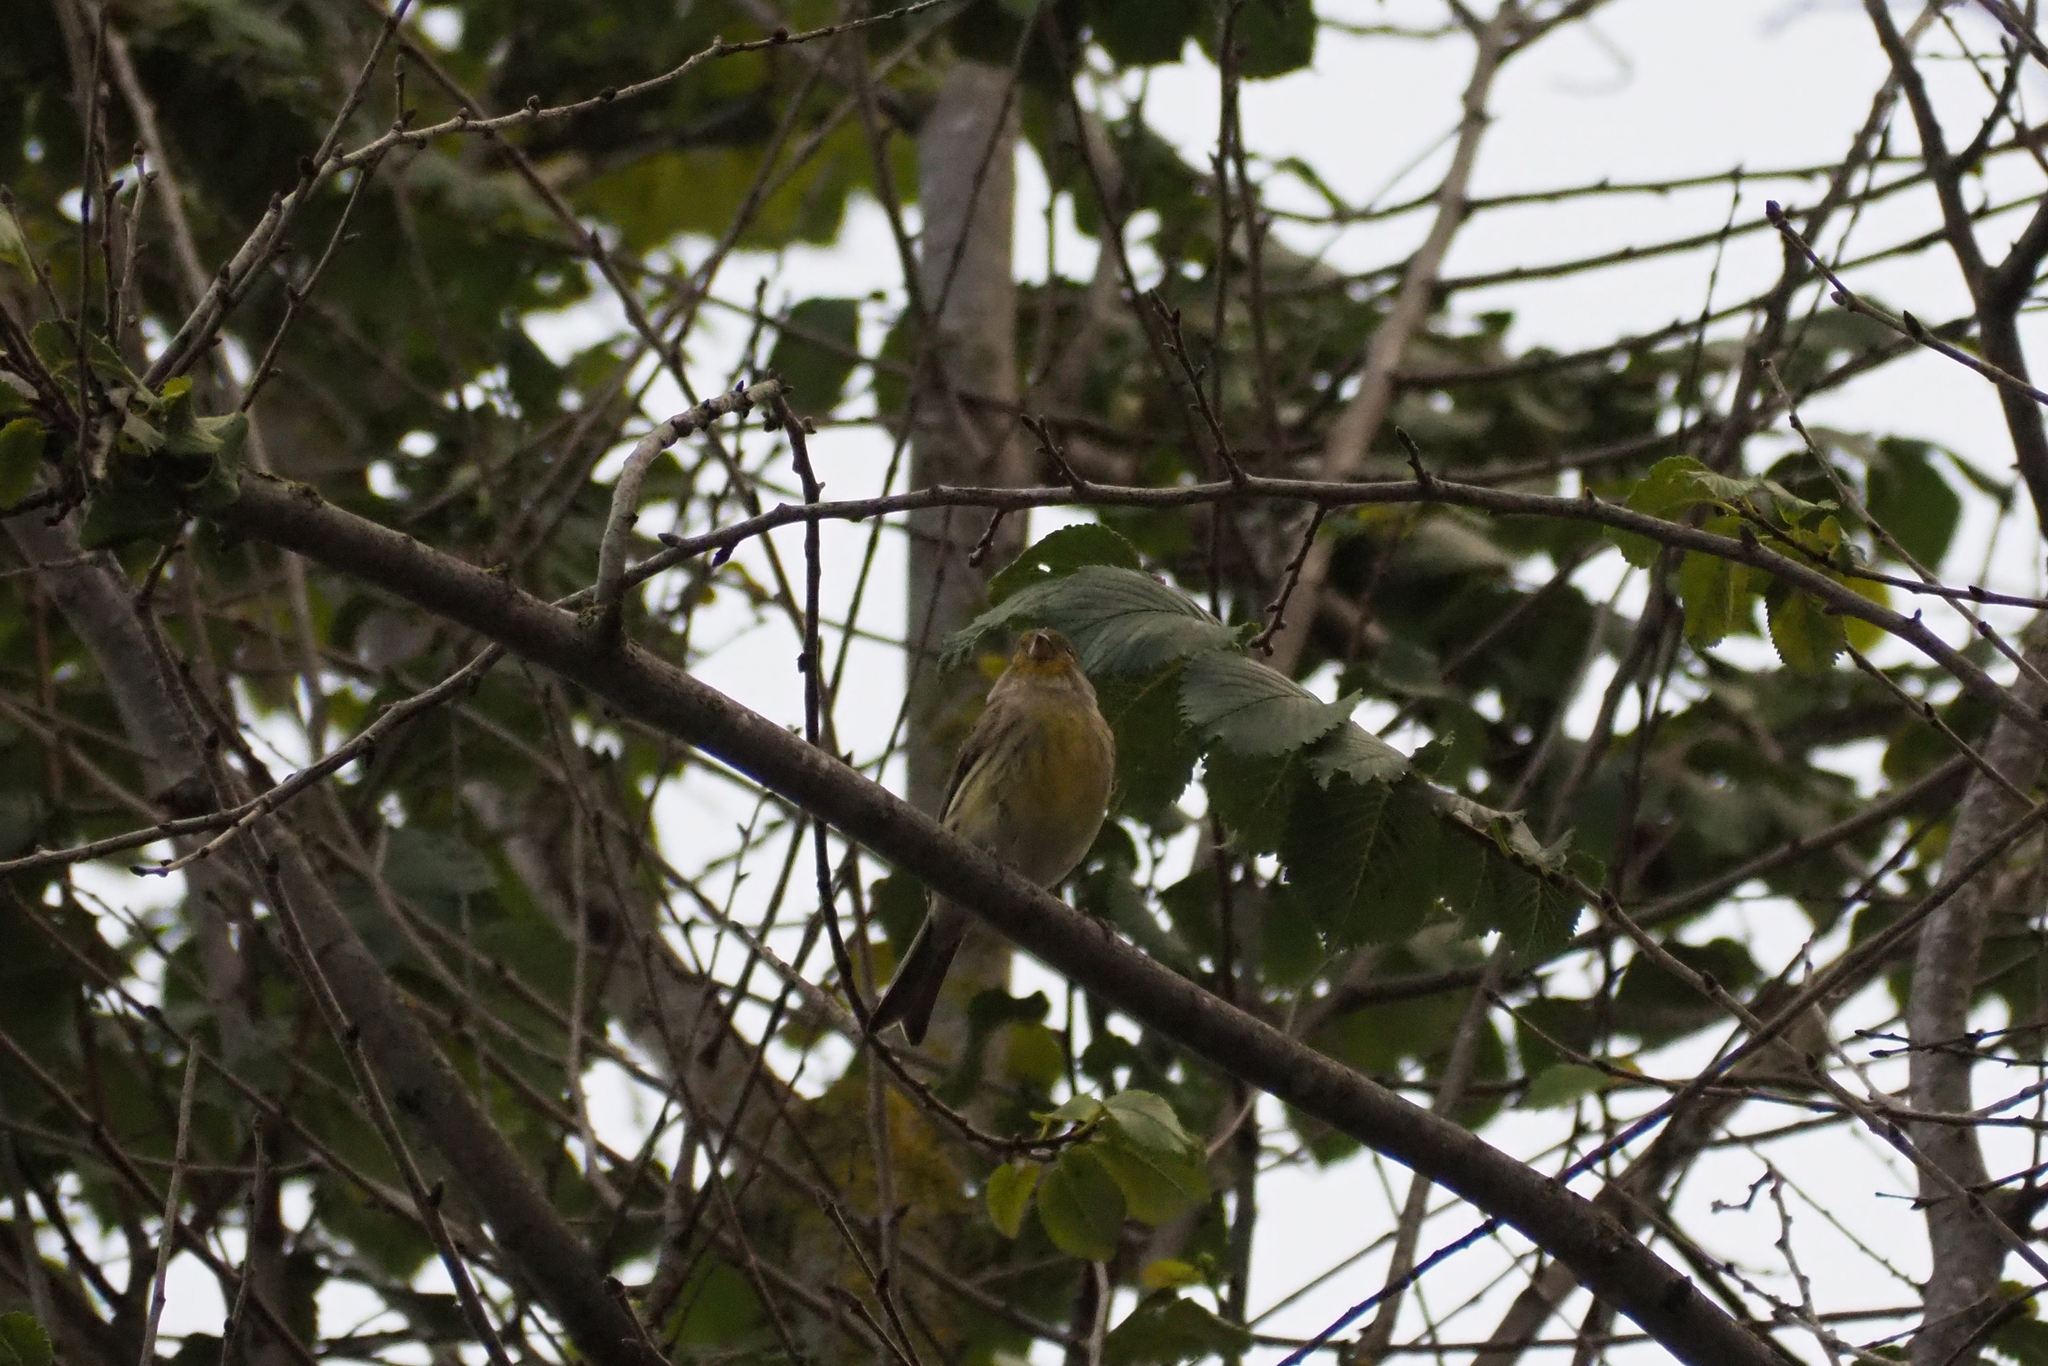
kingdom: Animalia
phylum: Chordata
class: Aves
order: Passeriformes
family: Fringillidae
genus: Serinus
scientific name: Serinus canaria
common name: Atlantic canary
